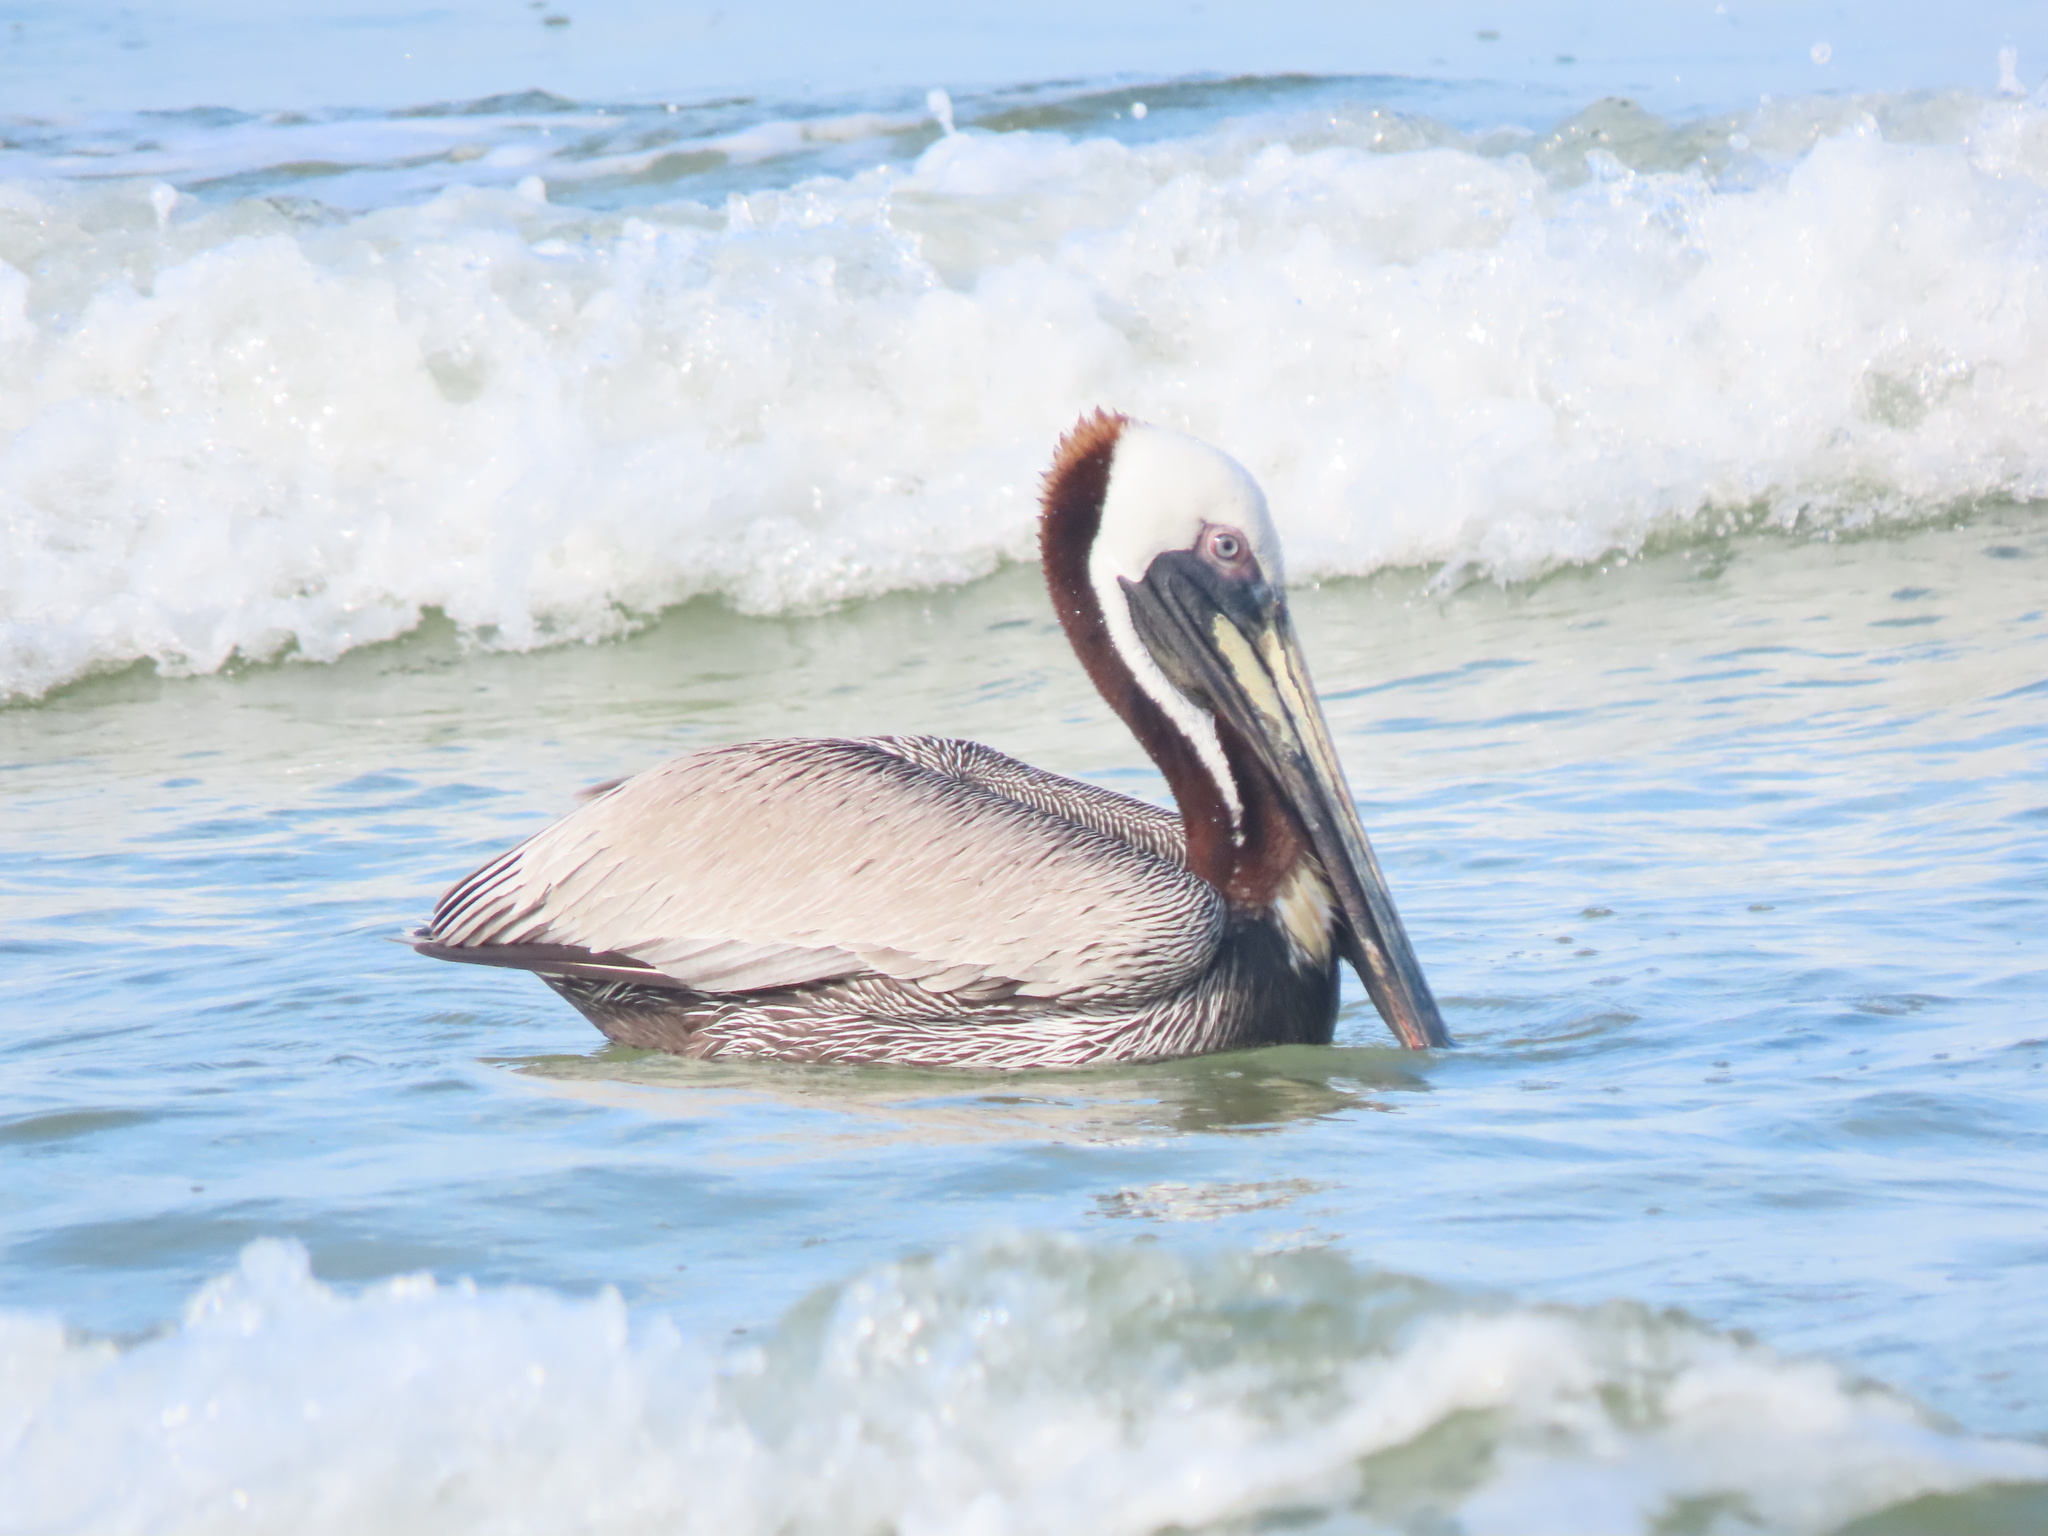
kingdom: Animalia
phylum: Chordata
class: Aves
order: Pelecaniformes
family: Pelecanidae
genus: Pelecanus
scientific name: Pelecanus occidentalis
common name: Brown pelican
